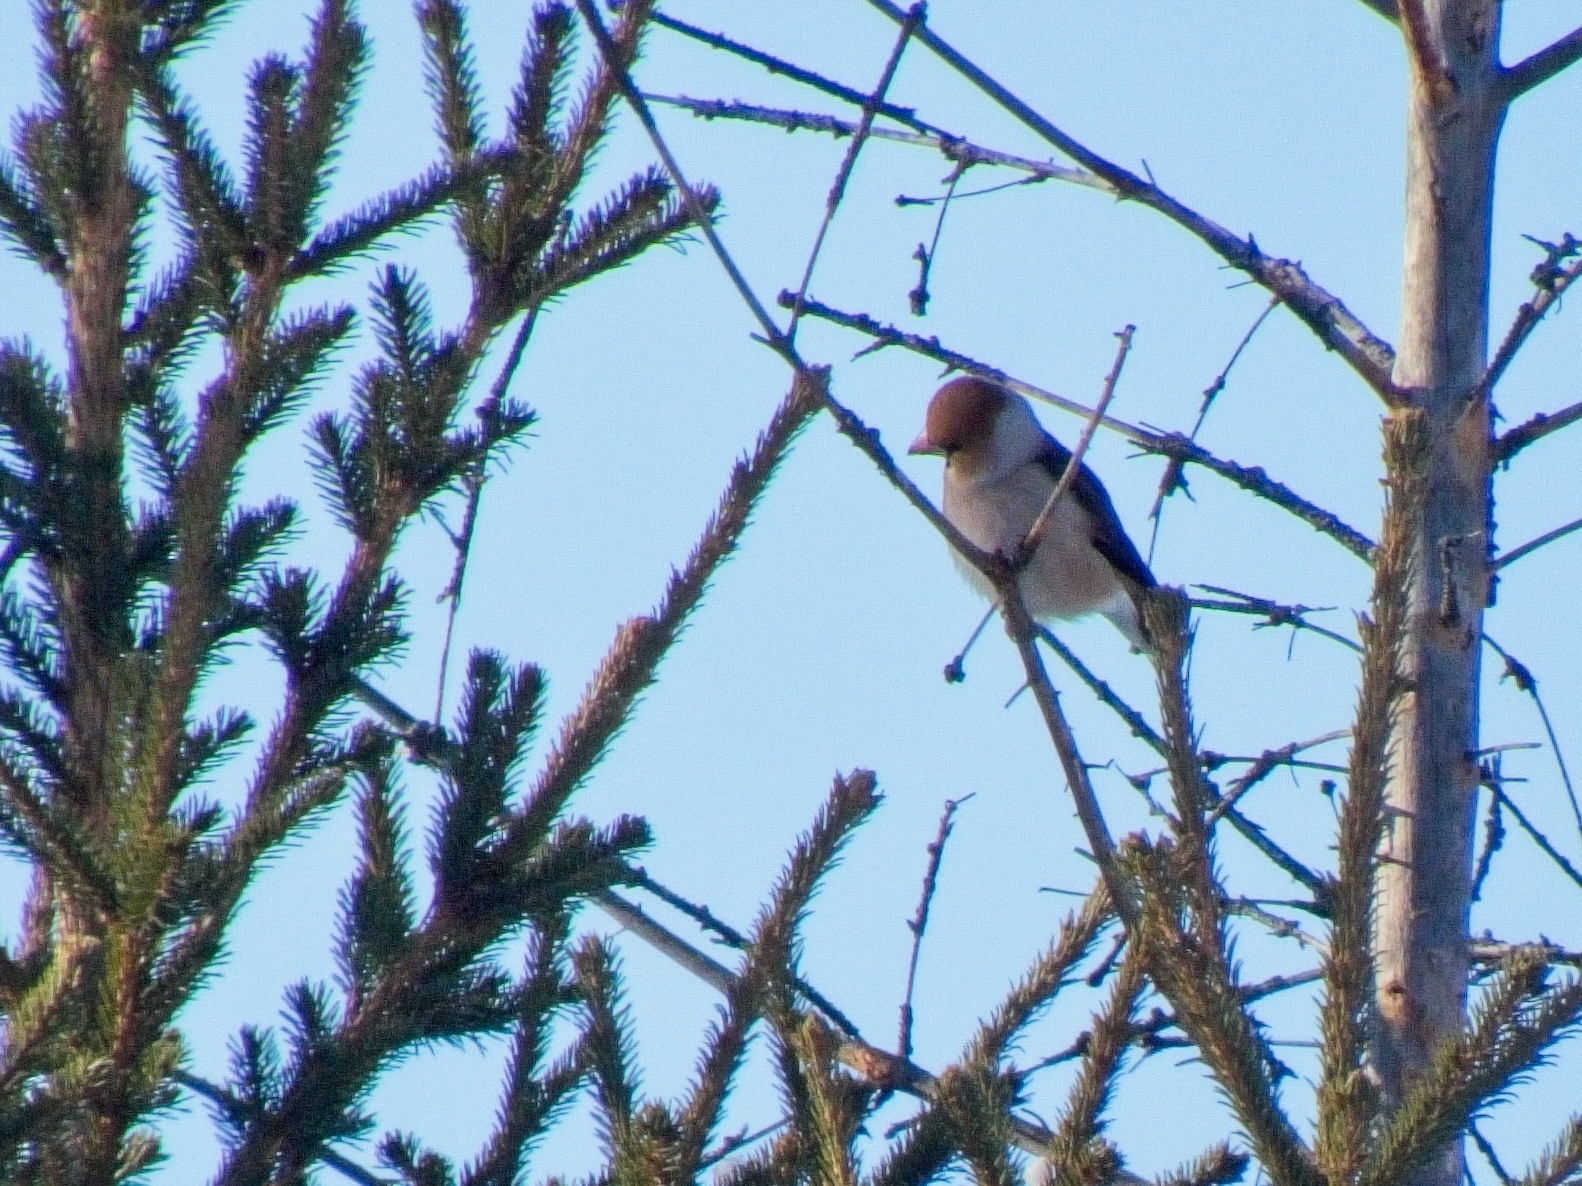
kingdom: Animalia
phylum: Chordata
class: Aves
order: Passeriformes
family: Fringillidae
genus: Coccothraustes
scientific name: Coccothraustes coccothraustes
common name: Hawfinch
